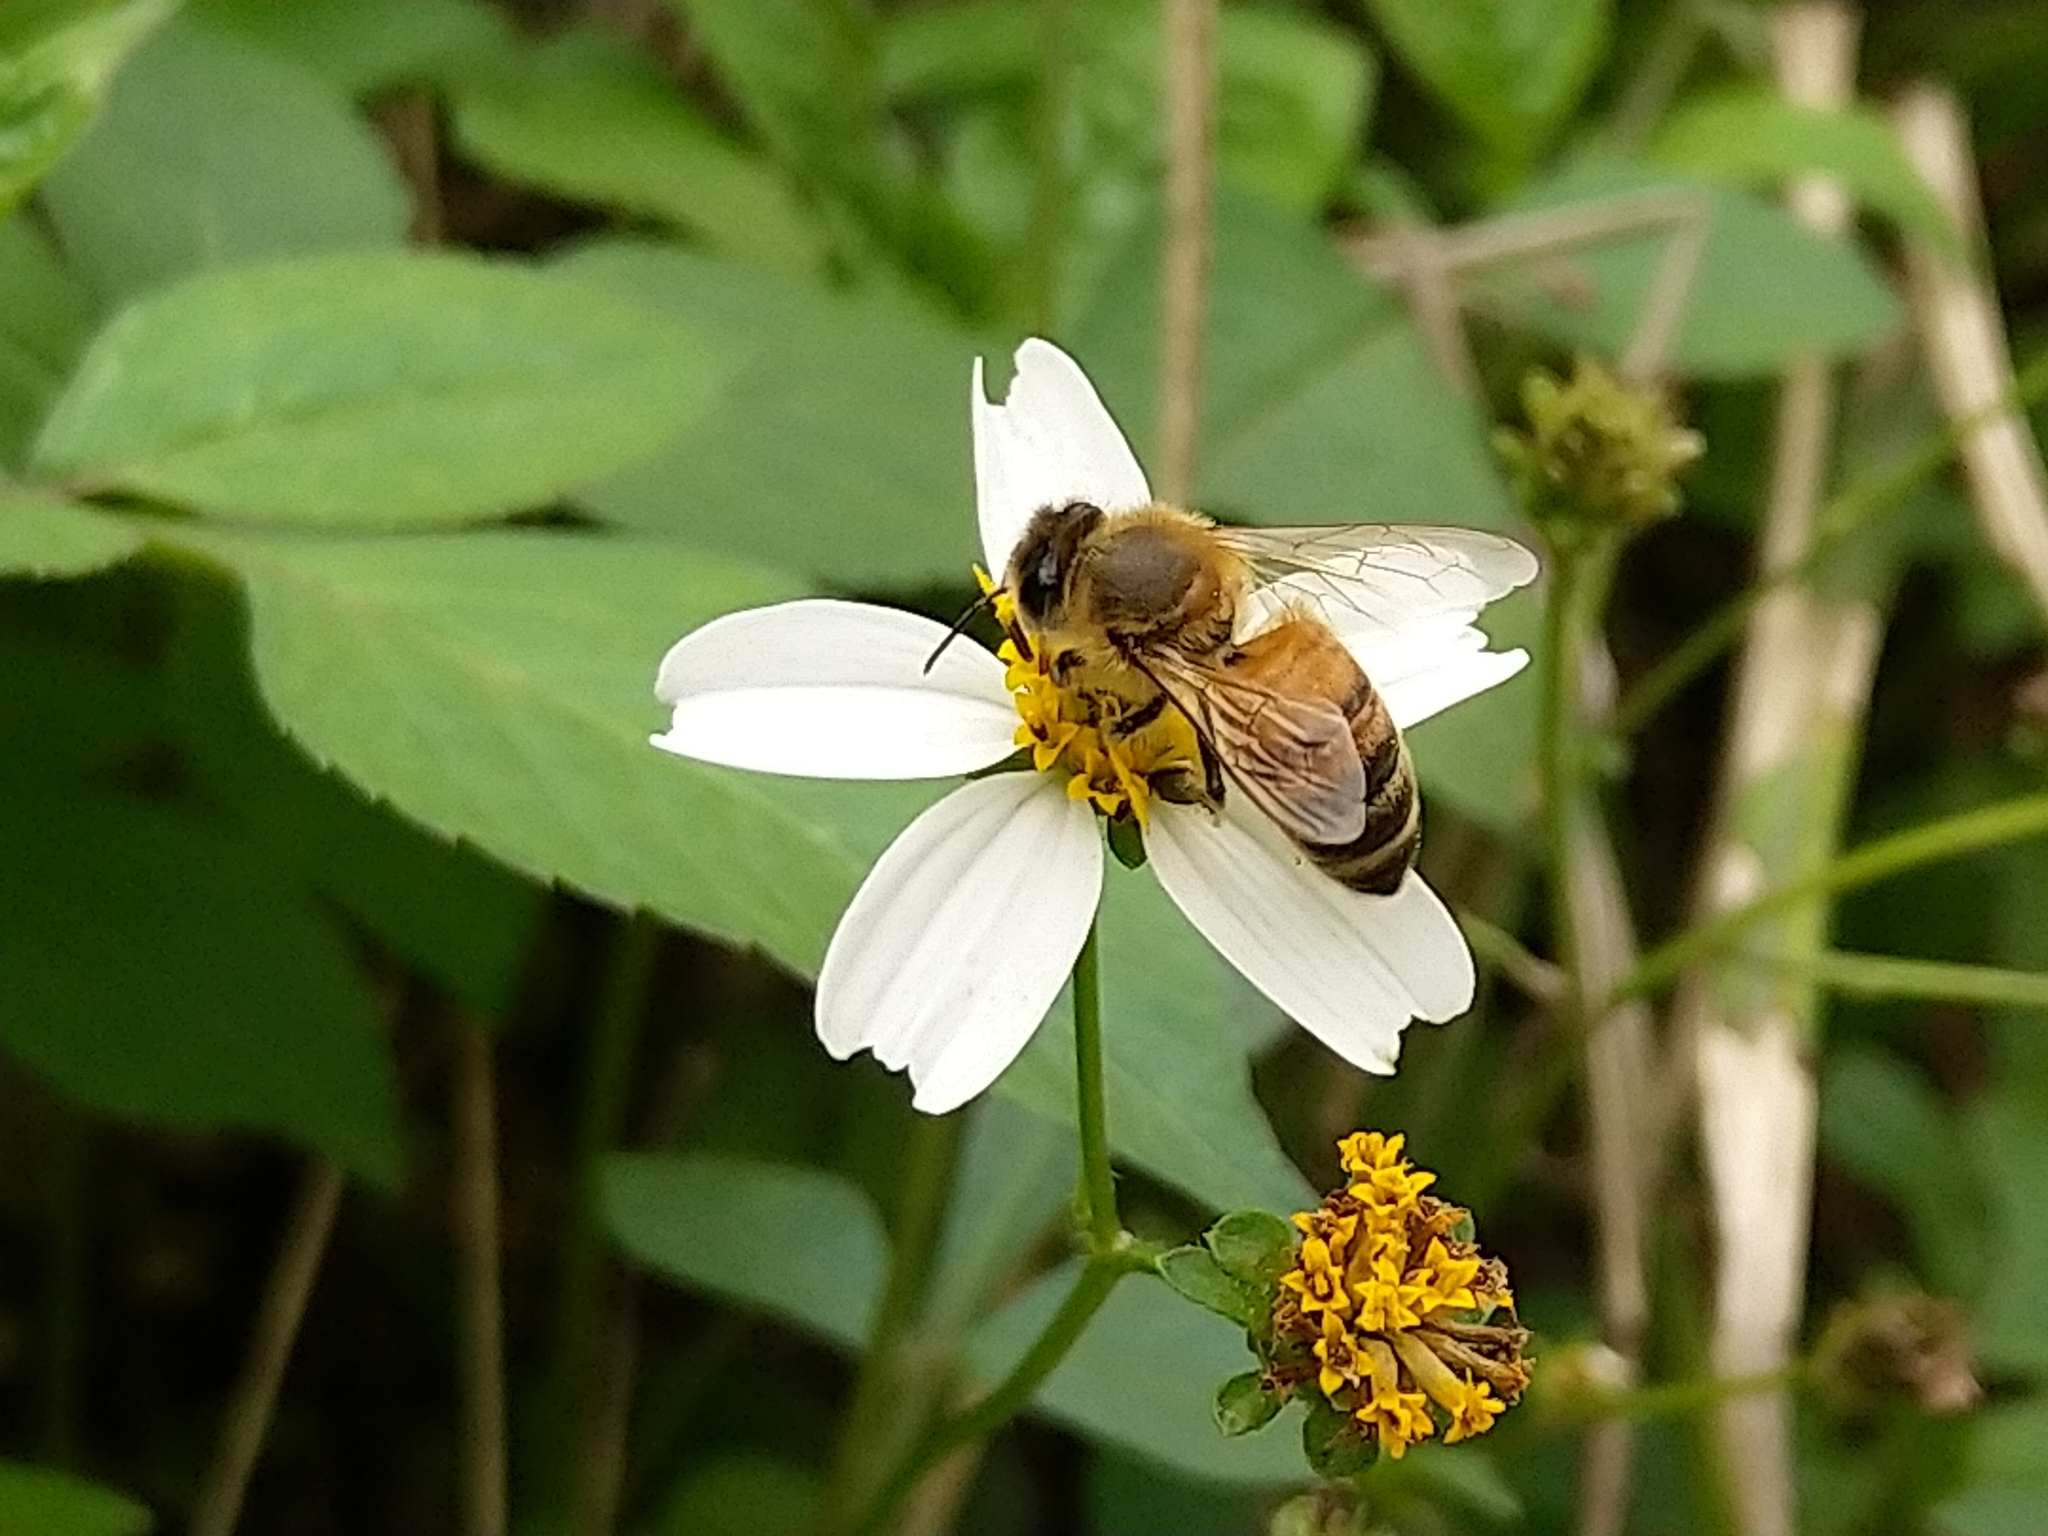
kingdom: Animalia
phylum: Arthropoda
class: Insecta
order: Hymenoptera
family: Apidae
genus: Apis
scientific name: Apis mellifera
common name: Honey bee
